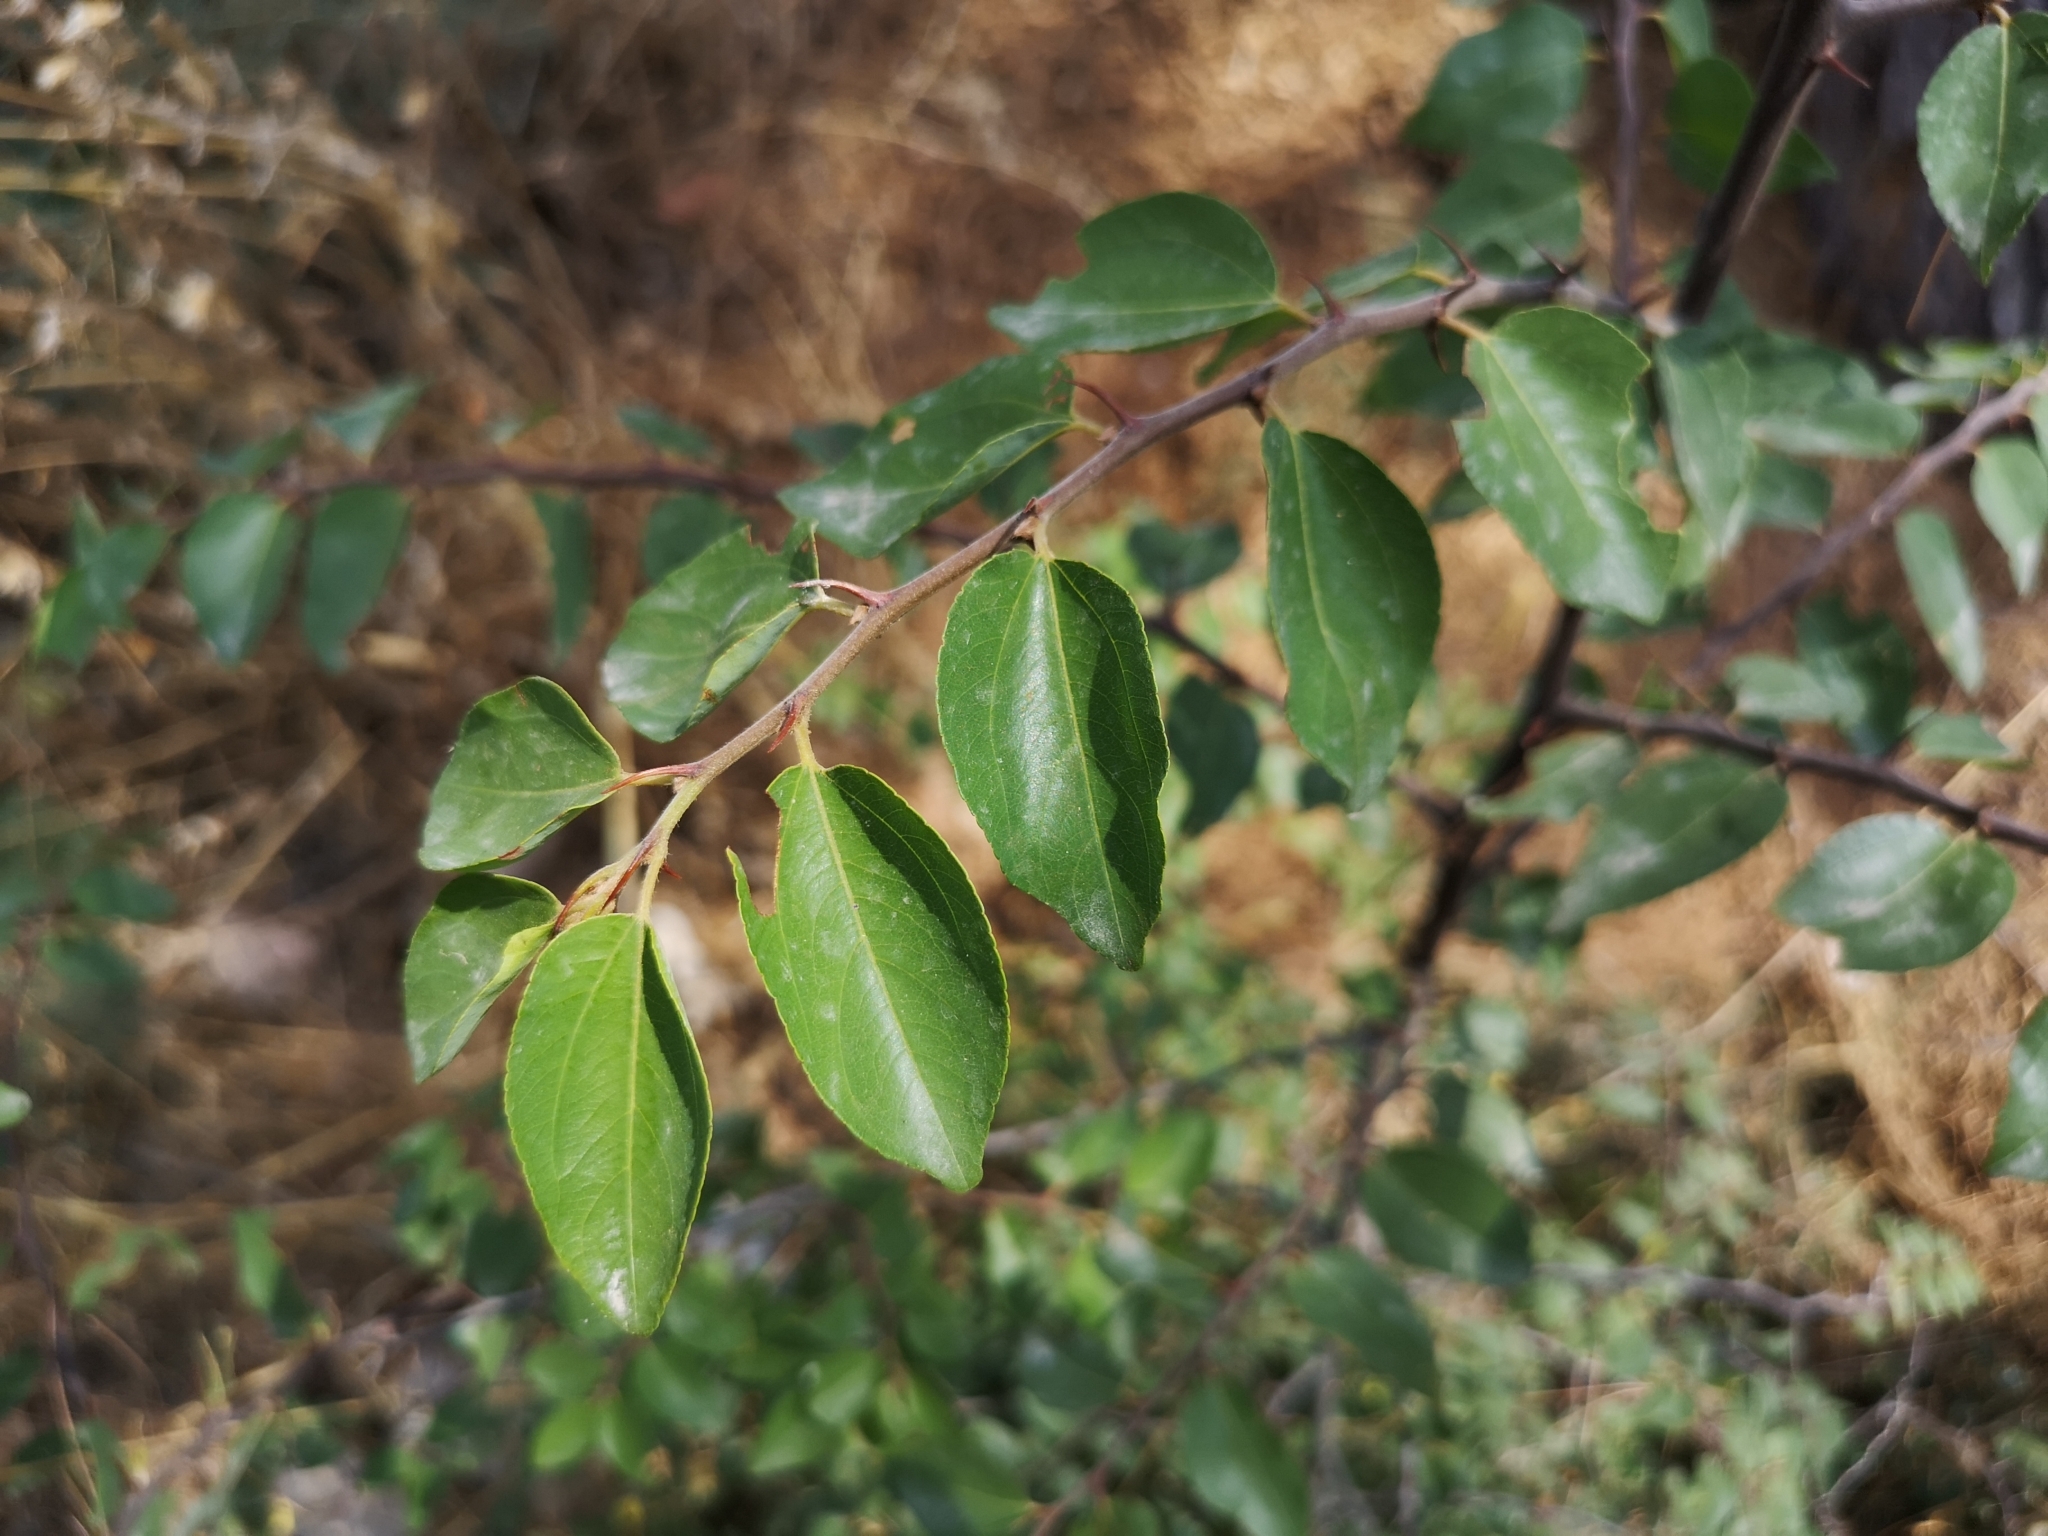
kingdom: Plantae
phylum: Tracheophyta
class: Magnoliopsida
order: Rosales
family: Rhamnaceae
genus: Paliurus
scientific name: Paliurus spina-christi
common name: Jeruselem thorn
